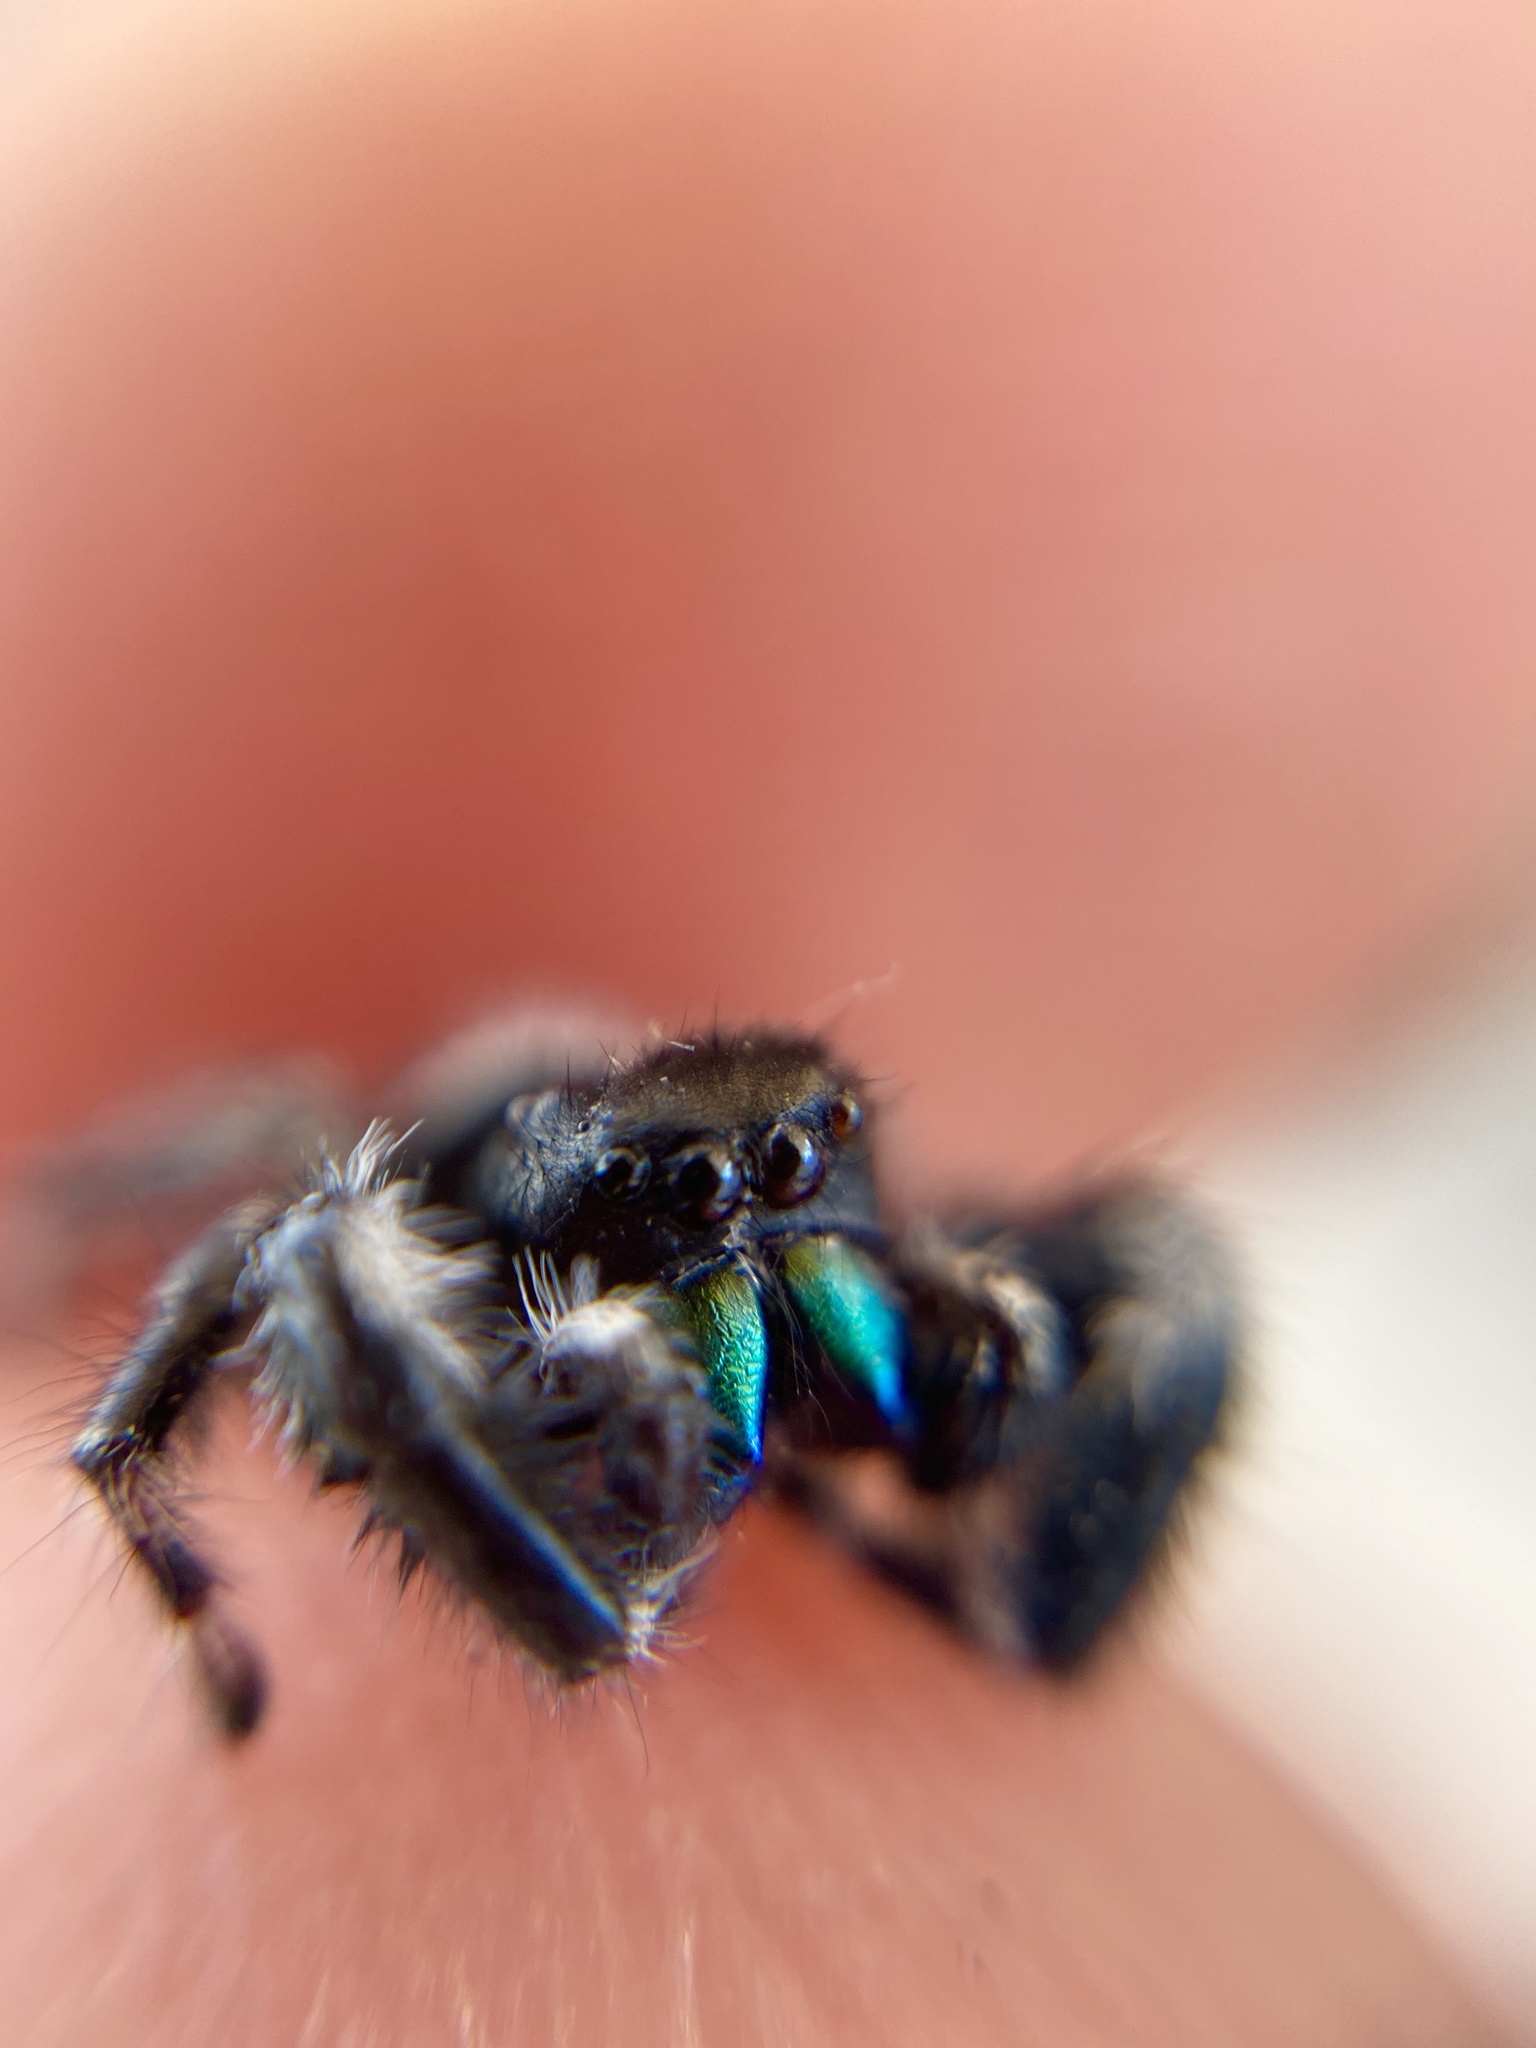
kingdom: Animalia
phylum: Arthropoda
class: Arachnida
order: Araneae
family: Salticidae
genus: Phidippus
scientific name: Phidippus audax
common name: Bold jumper
